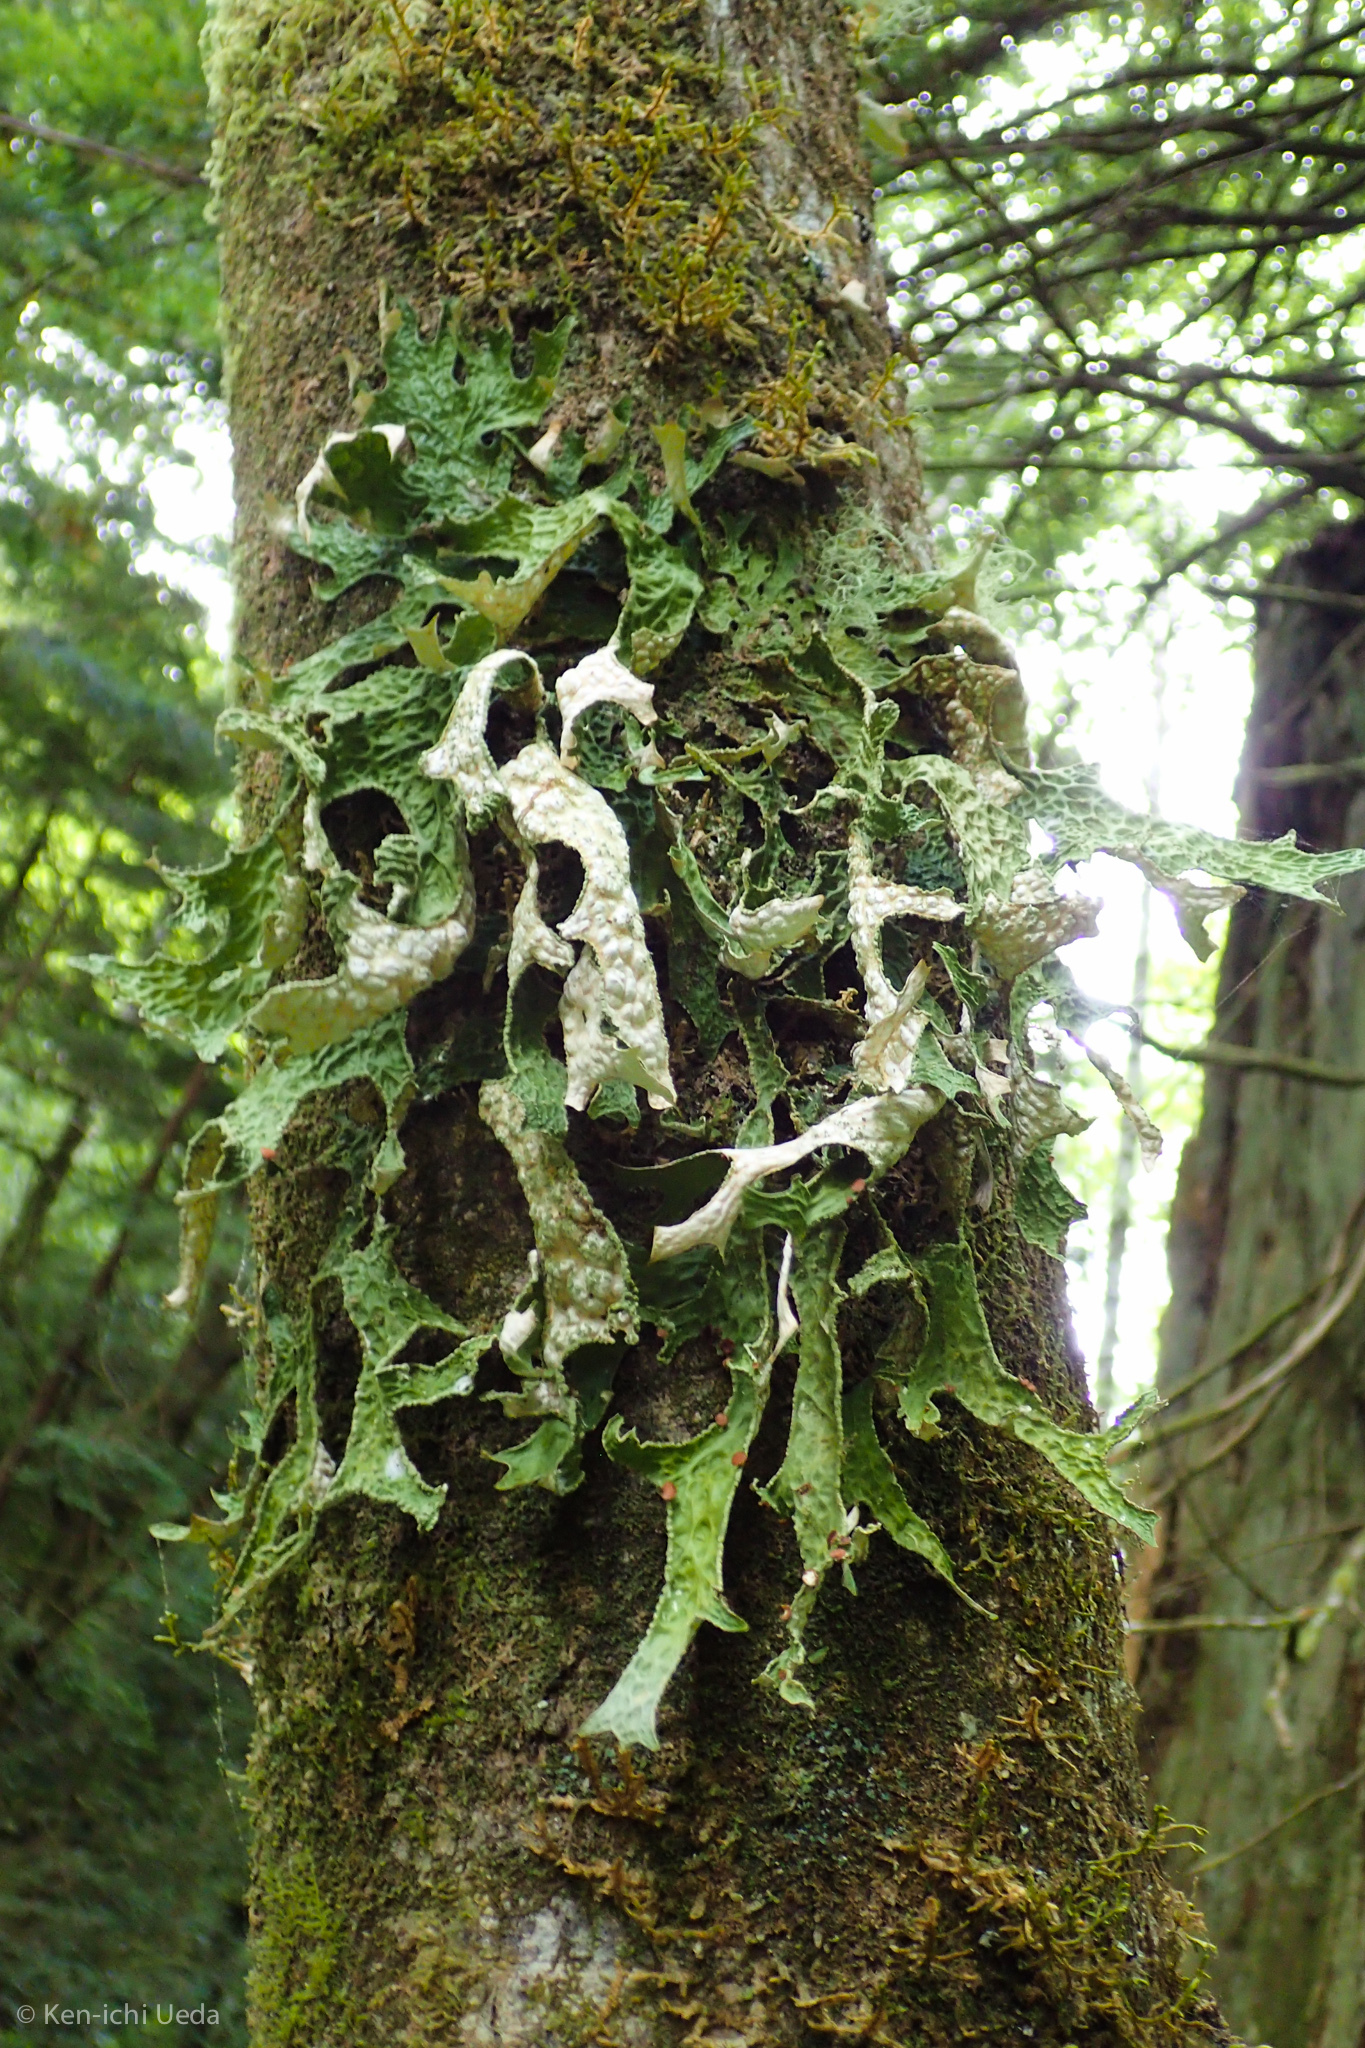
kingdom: Fungi
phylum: Ascomycota
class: Lecanoromycetes
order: Peltigerales
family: Lobariaceae
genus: Lobaria
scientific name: Lobaria pulmonaria
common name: Lungwort
